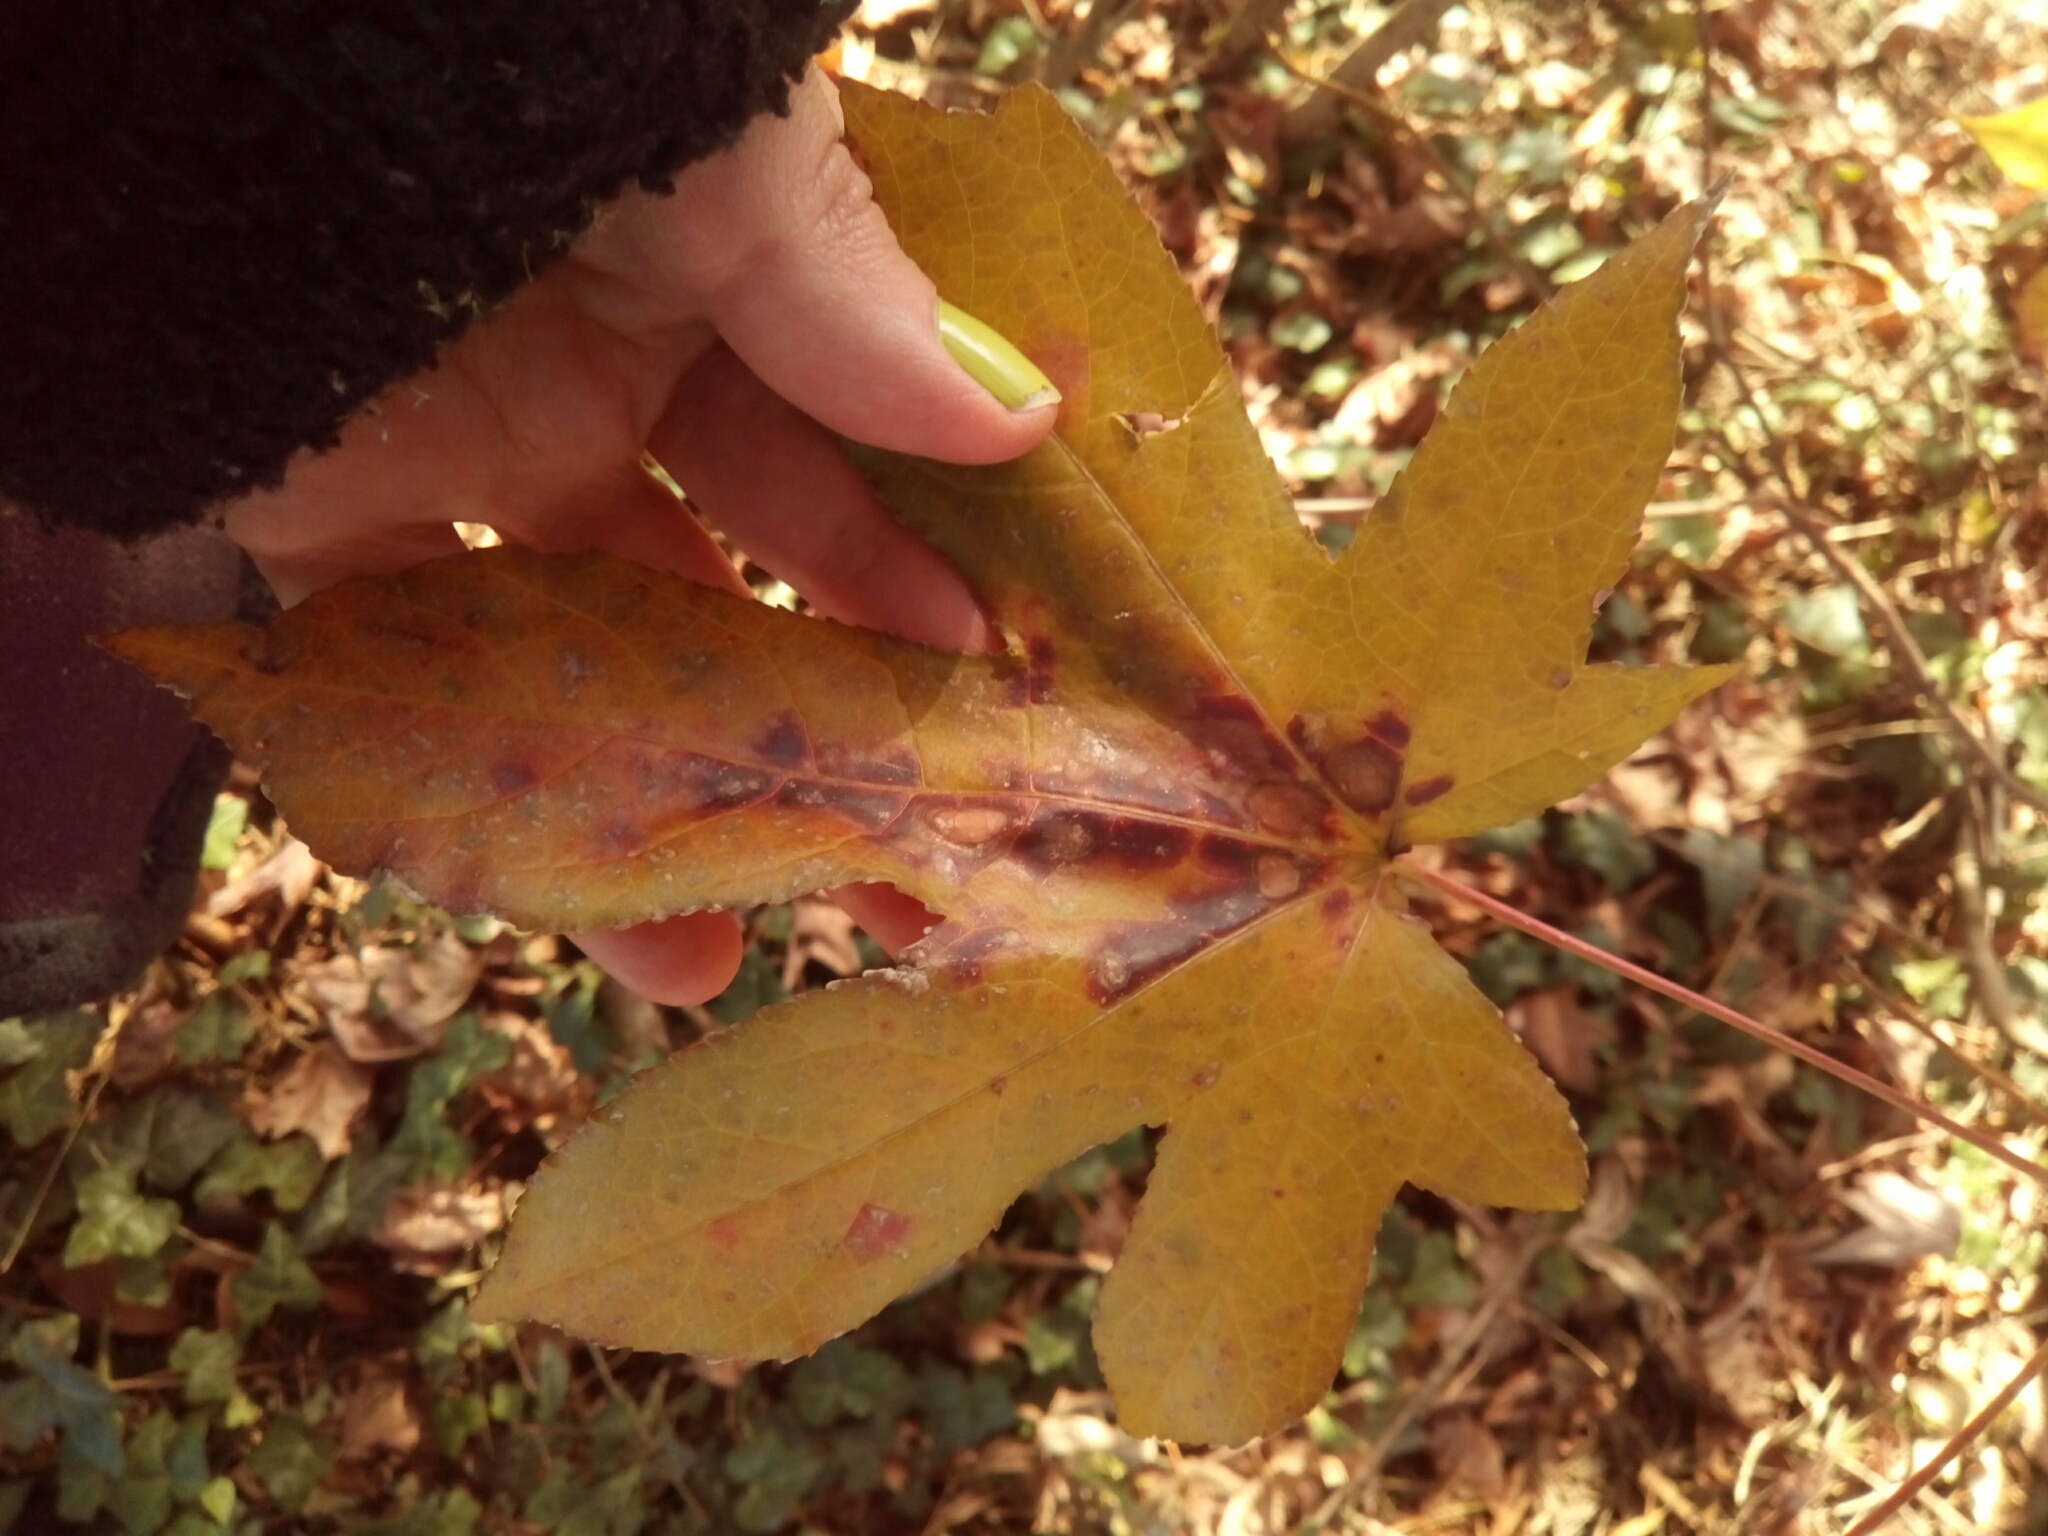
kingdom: Plantae
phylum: Tracheophyta
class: Magnoliopsida
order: Saxifragales
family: Altingiaceae
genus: Liquidambar
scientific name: Liquidambar styraciflua
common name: Sweet gum
